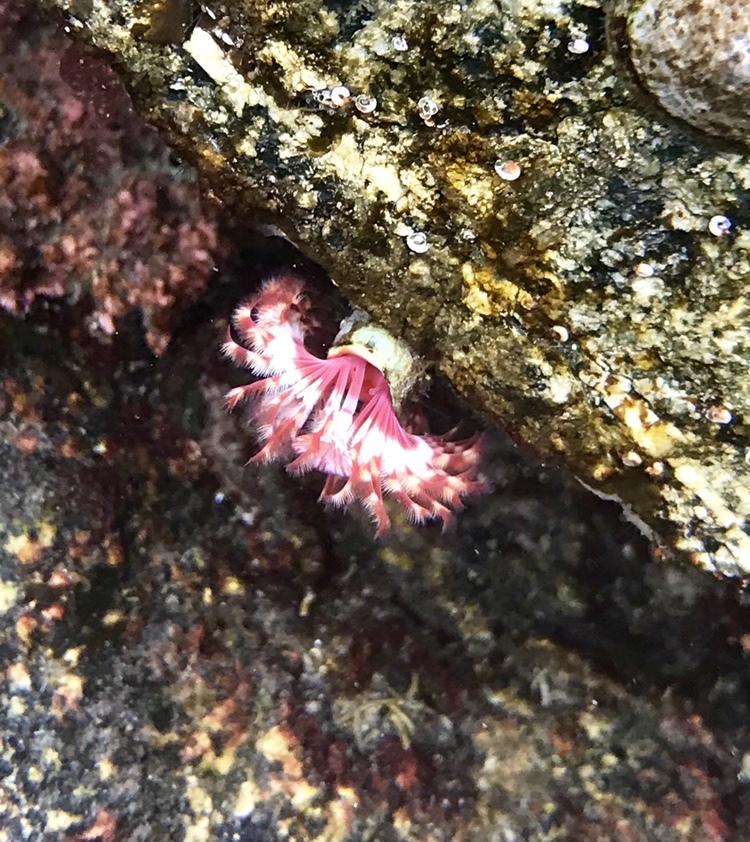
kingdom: Animalia
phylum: Annelida
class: Polychaeta
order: Sabellida
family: Serpulidae
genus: Serpula
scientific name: Serpula columbiana
